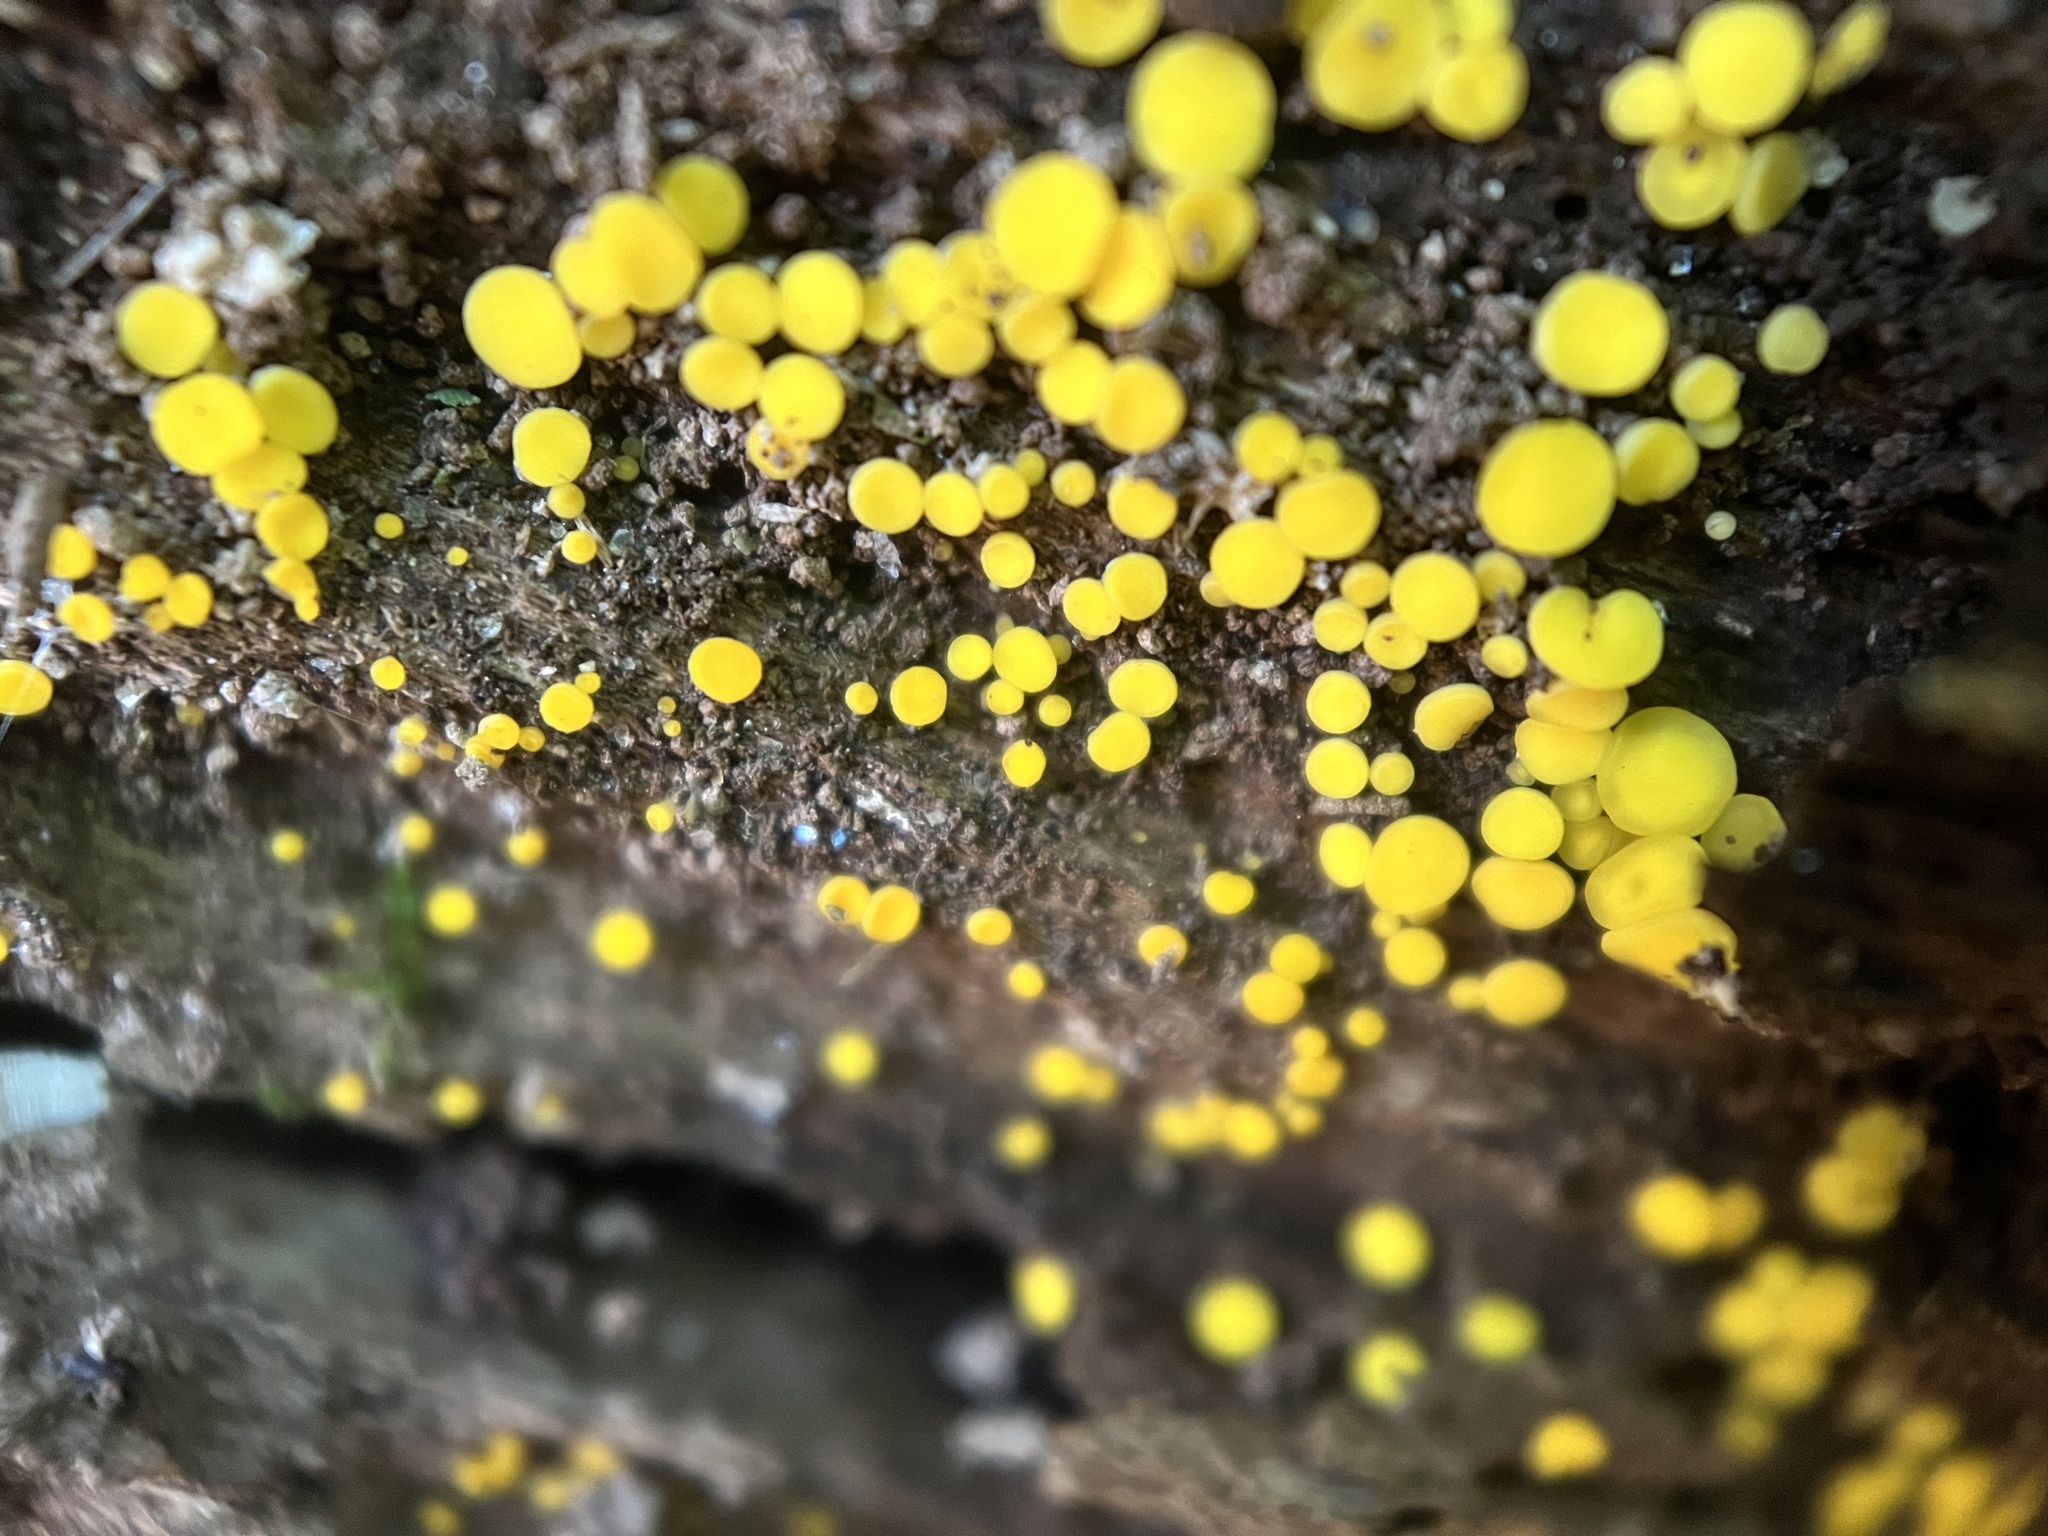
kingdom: Fungi
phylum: Ascomycota
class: Leotiomycetes
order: Helotiales
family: Pezizellaceae
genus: Calycina
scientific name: Calycina citrina
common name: Yellow fairy cups
